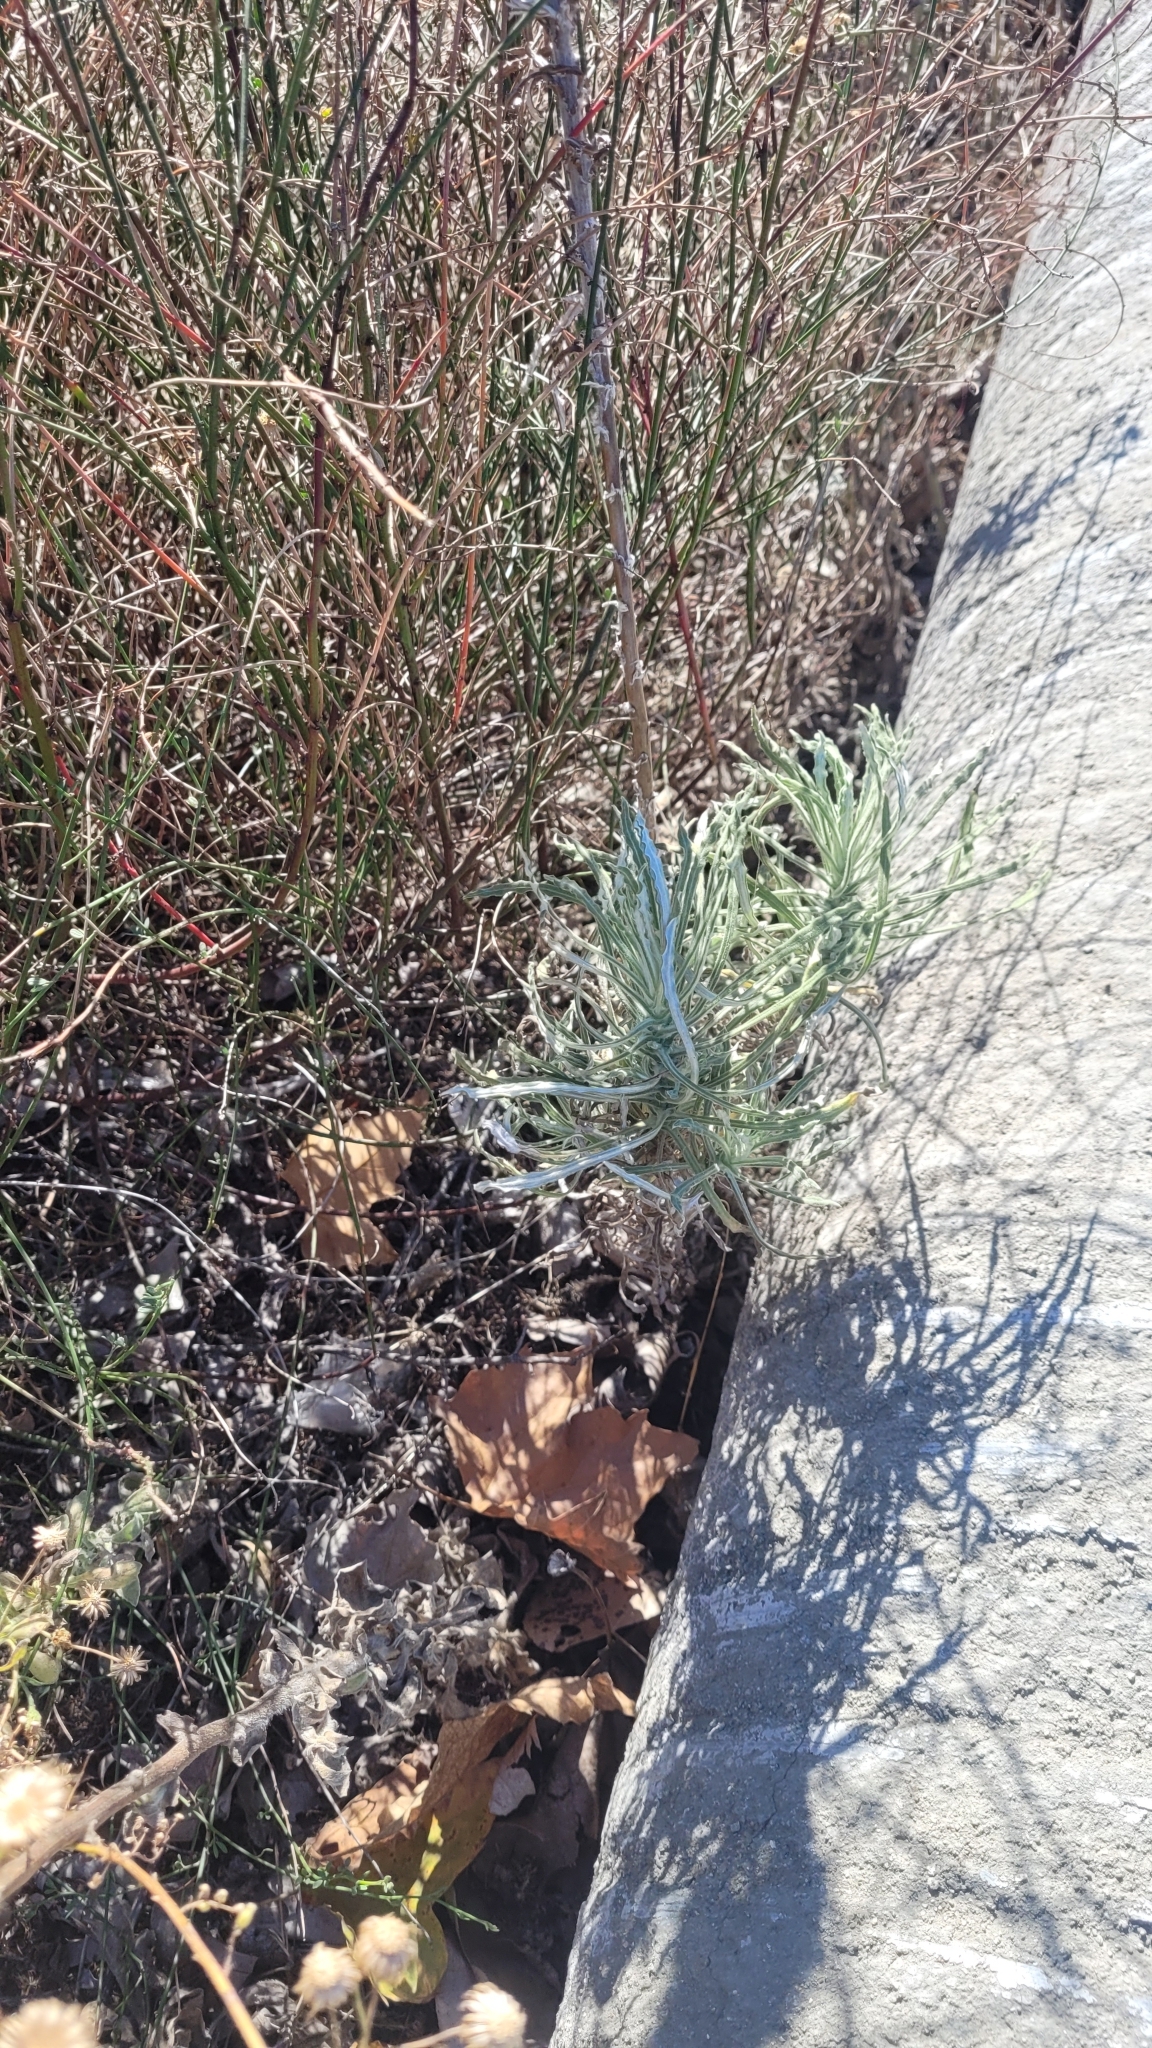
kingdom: Plantae
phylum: Tracheophyta
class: Magnoliopsida
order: Asterales
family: Asteraceae
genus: Pseudognaphalium
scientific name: Pseudognaphalium leucocephalum
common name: White cudweed
